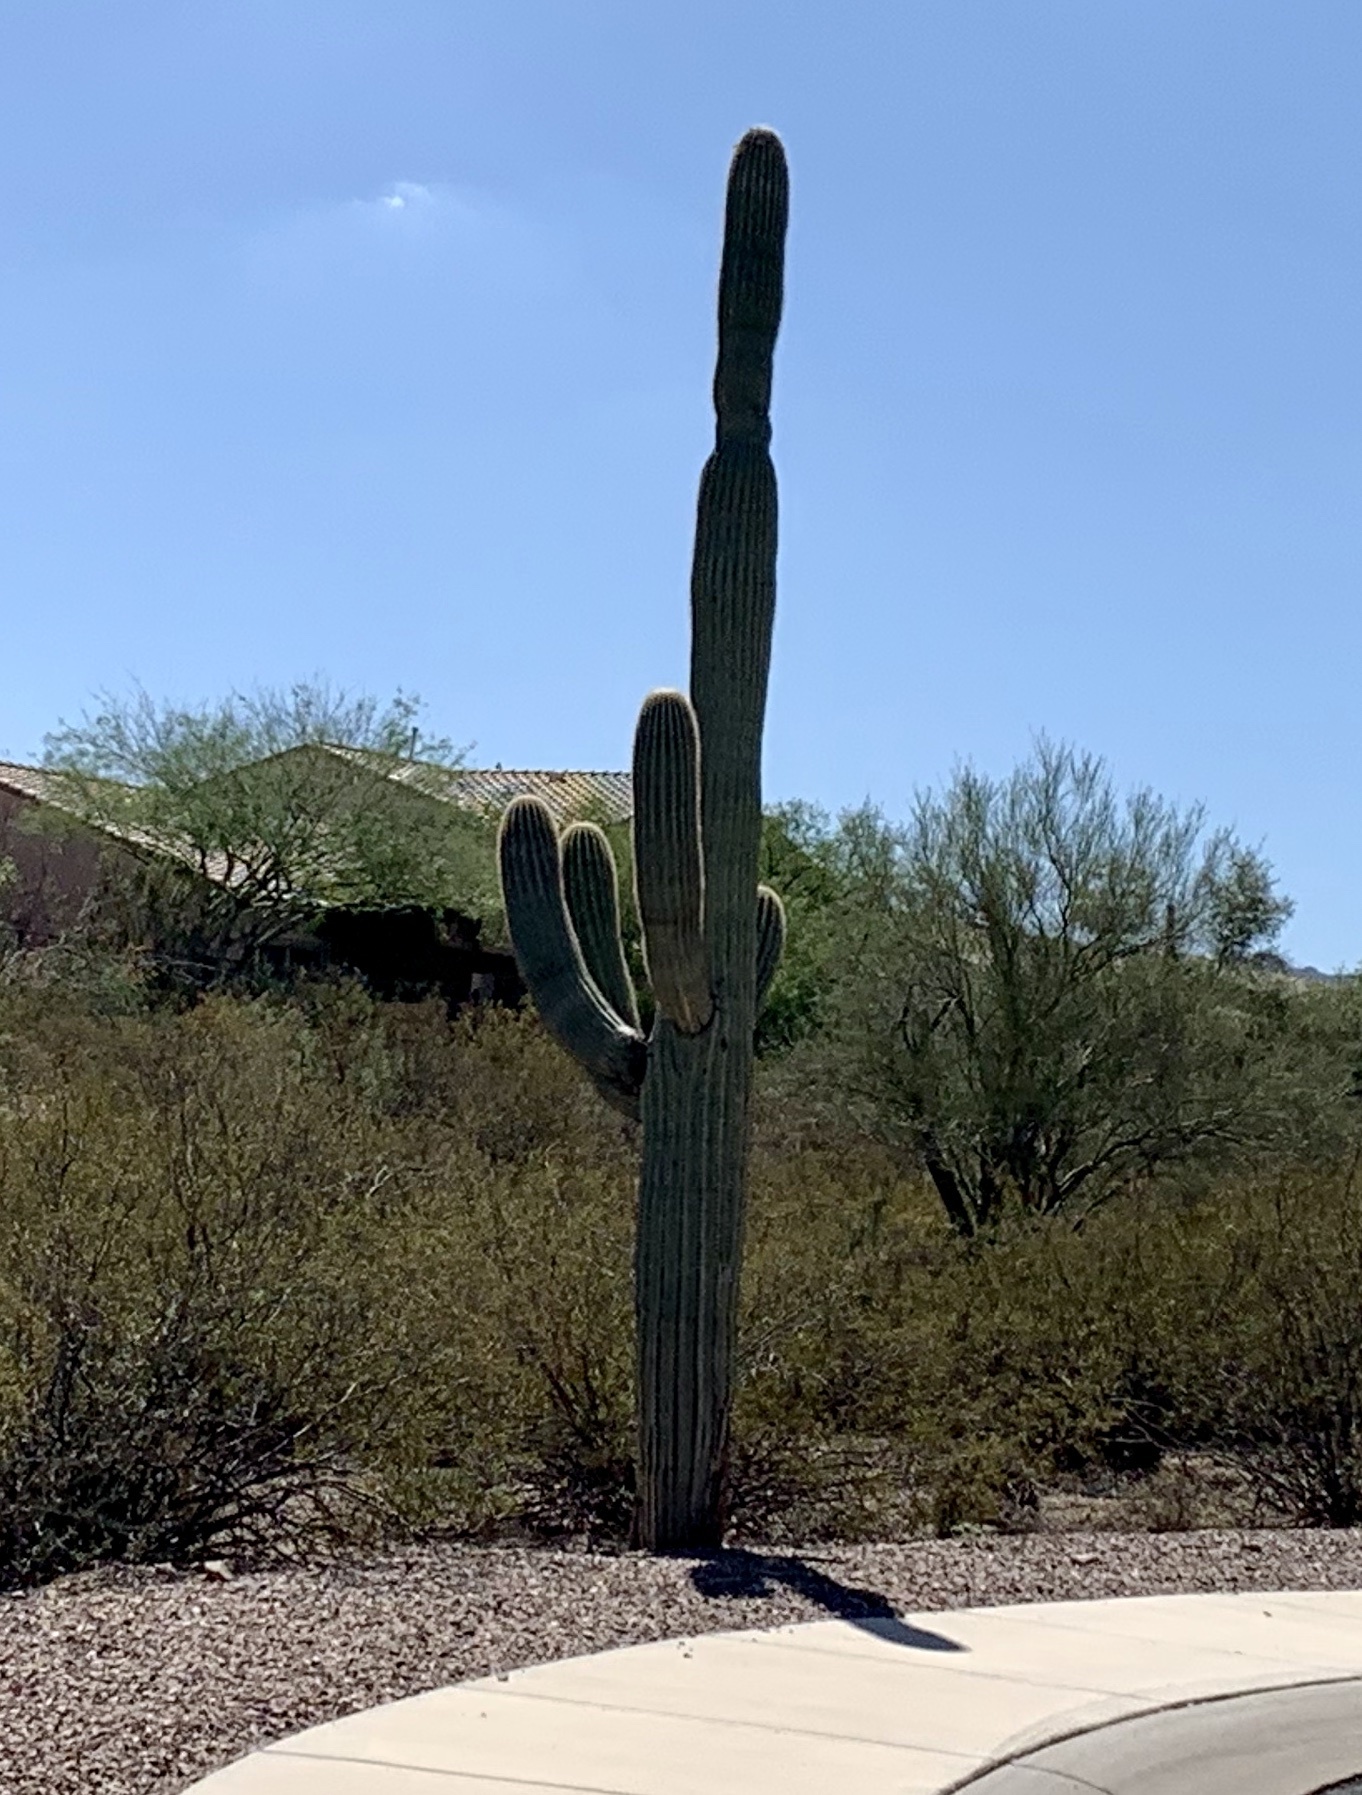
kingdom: Plantae
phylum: Tracheophyta
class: Magnoliopsida
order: Caryophyllales
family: Cactaceae
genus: Carnegiea
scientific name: Carnegiea gigantea
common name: Saguaro
